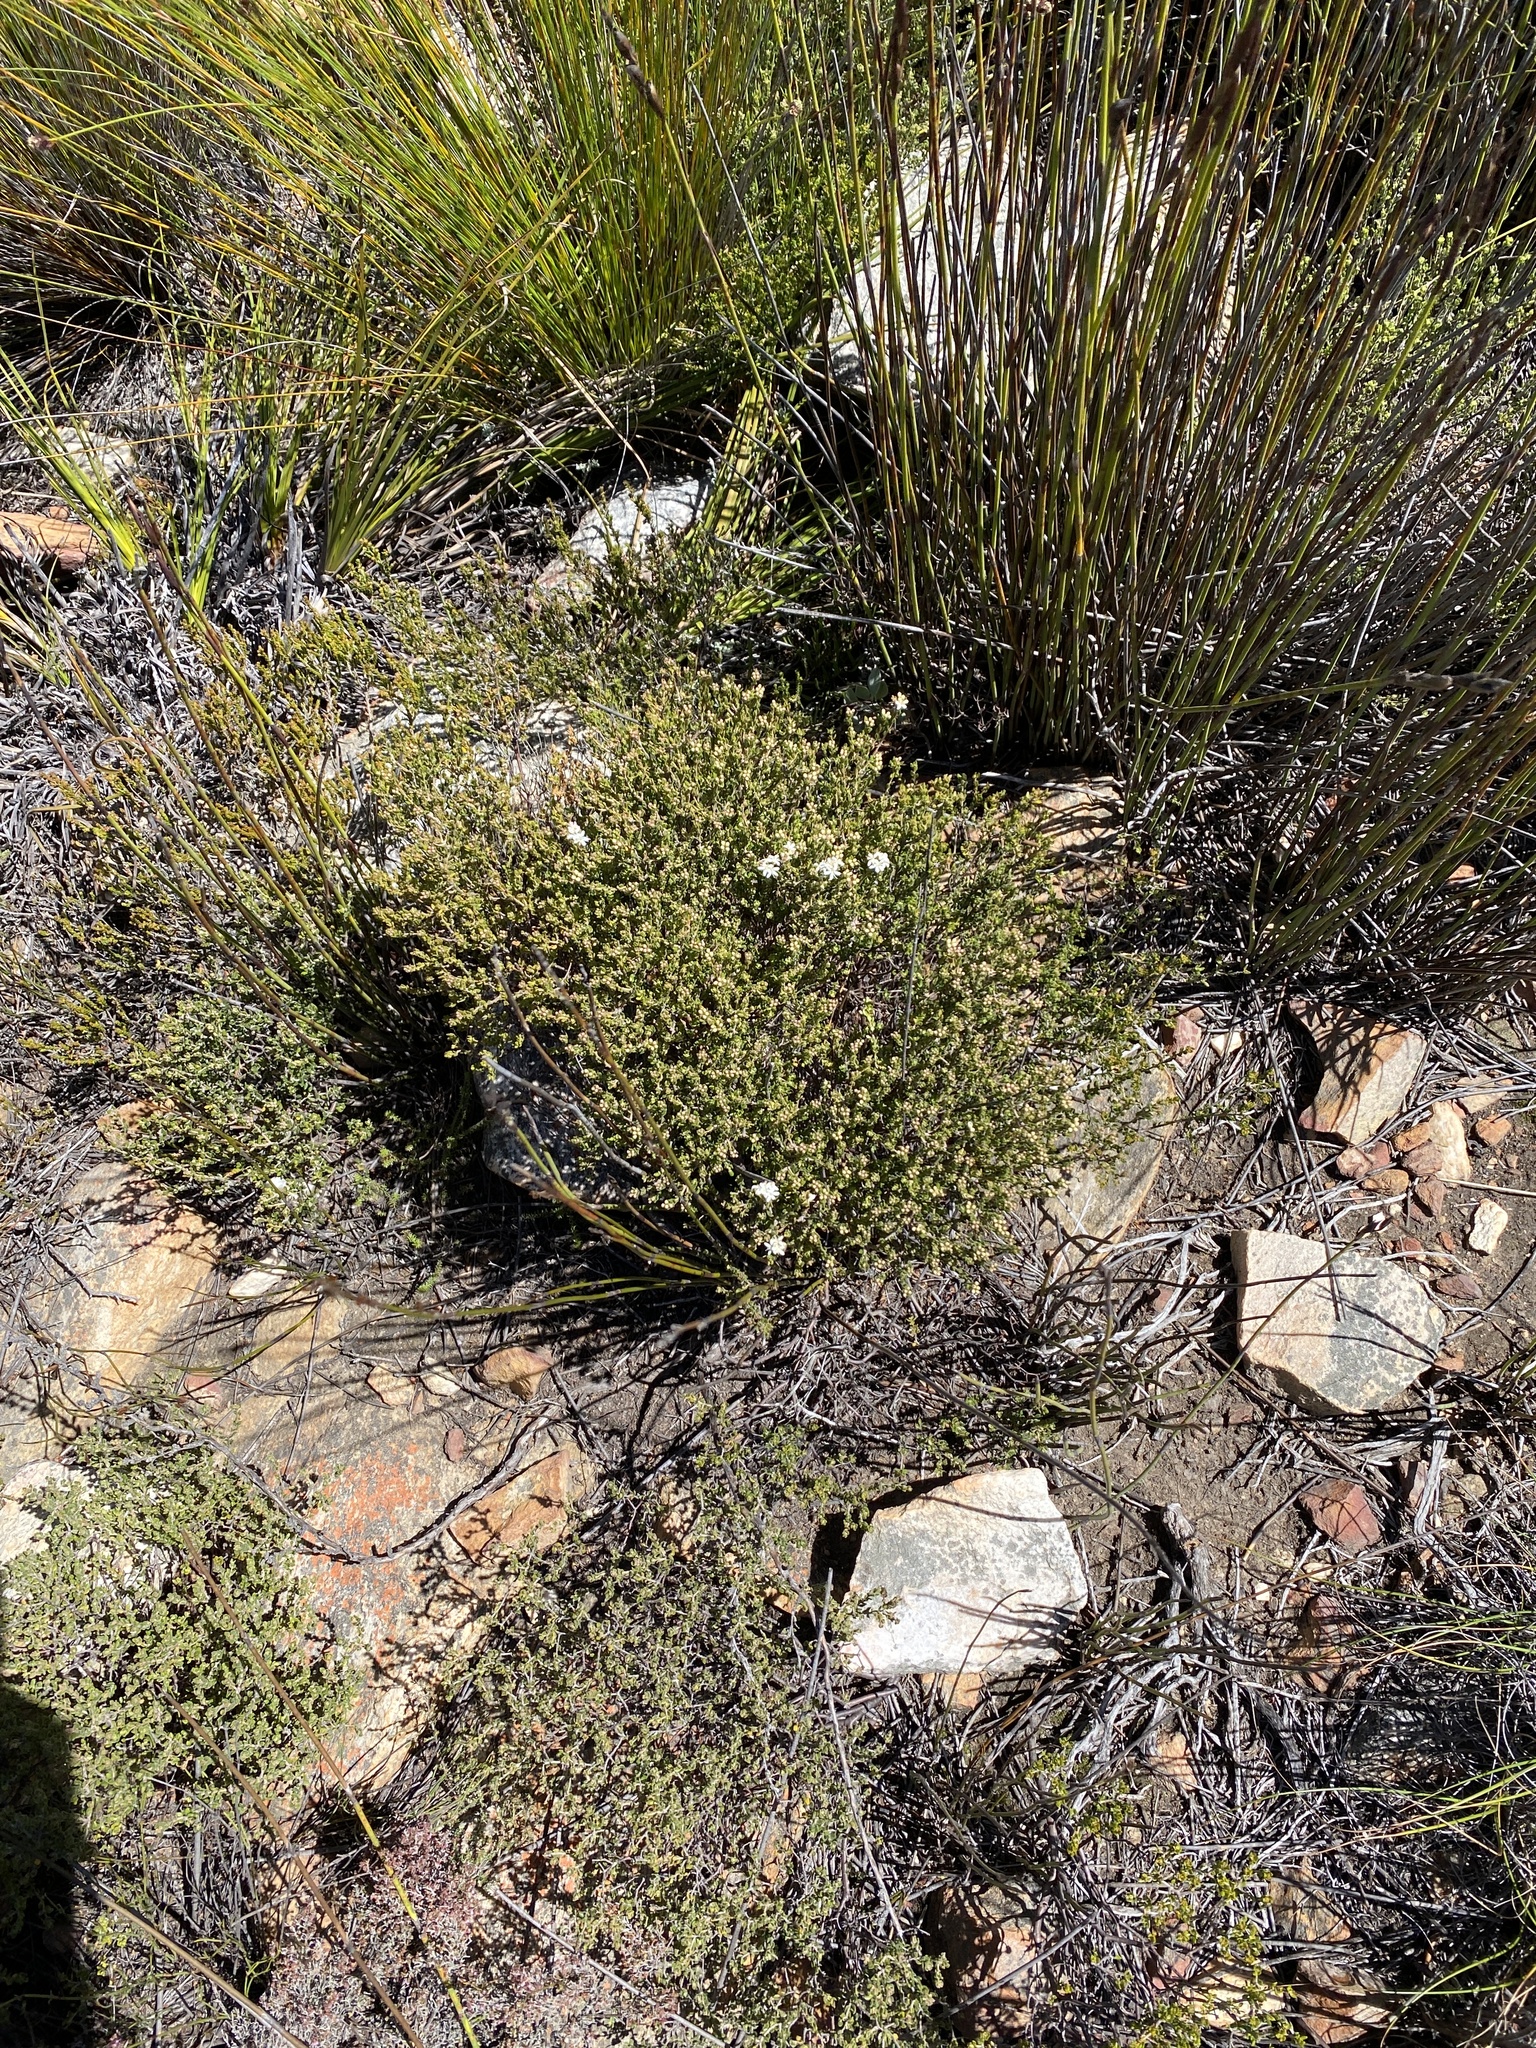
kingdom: Plantae
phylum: Tracheophyta
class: Magnoliopsida
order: Sapindales
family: Rutaceae
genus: Agathosma
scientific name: Agathosma mundtii
